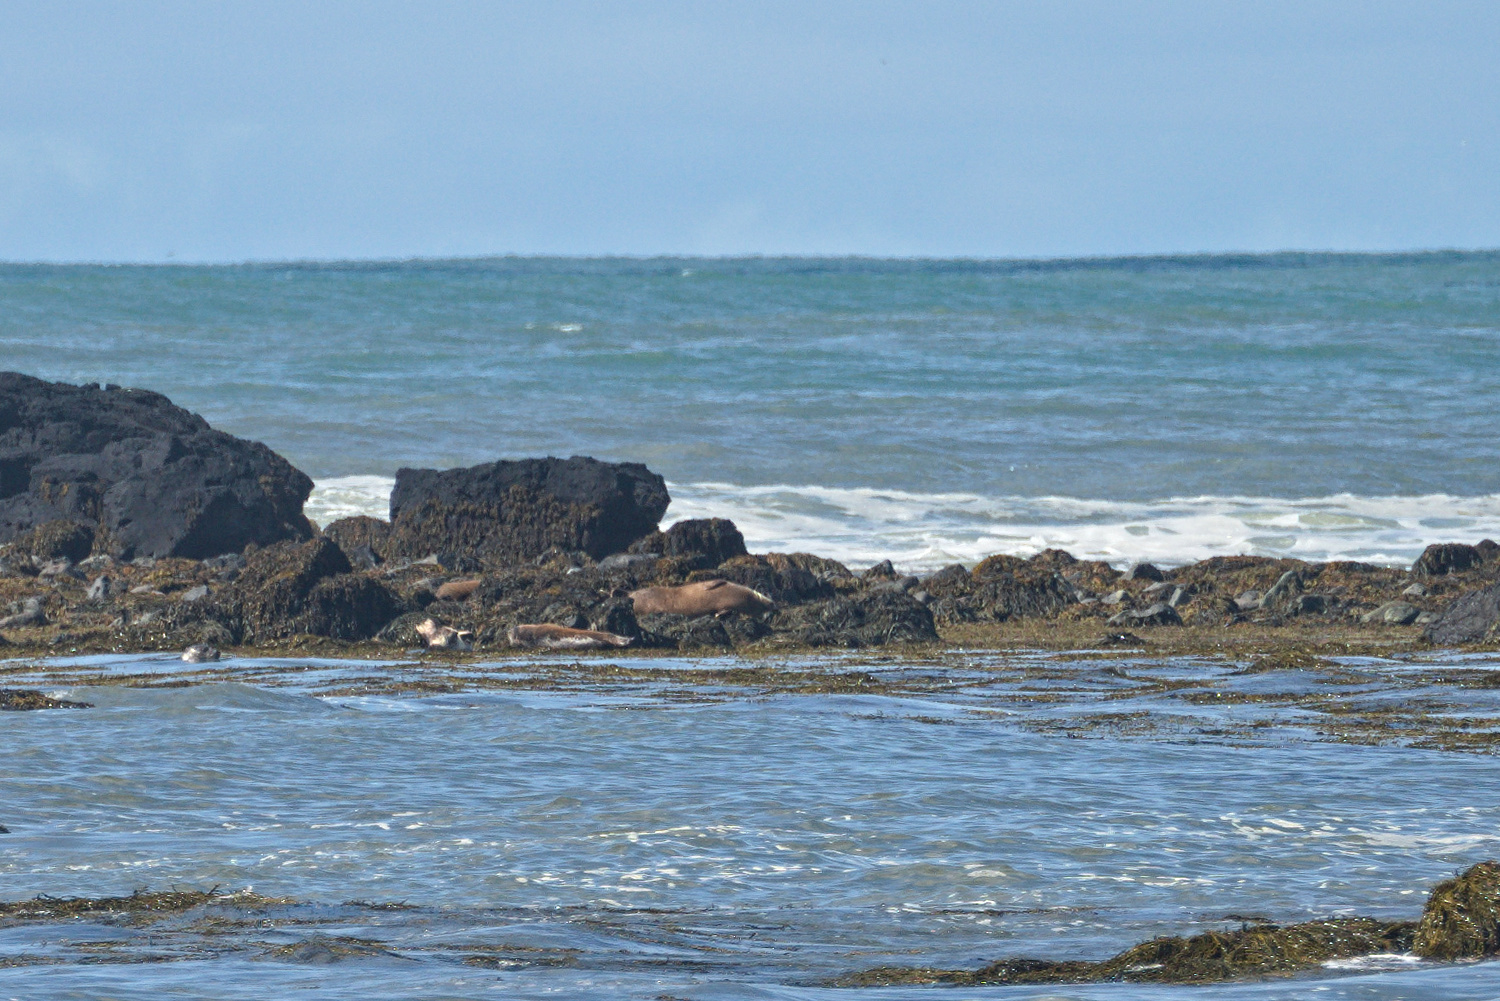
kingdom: Animalia
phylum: Chordata
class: Mammalia
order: Carnivora
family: Phocidae
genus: Phoca
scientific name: Phoca vitulina
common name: Harbor seal
